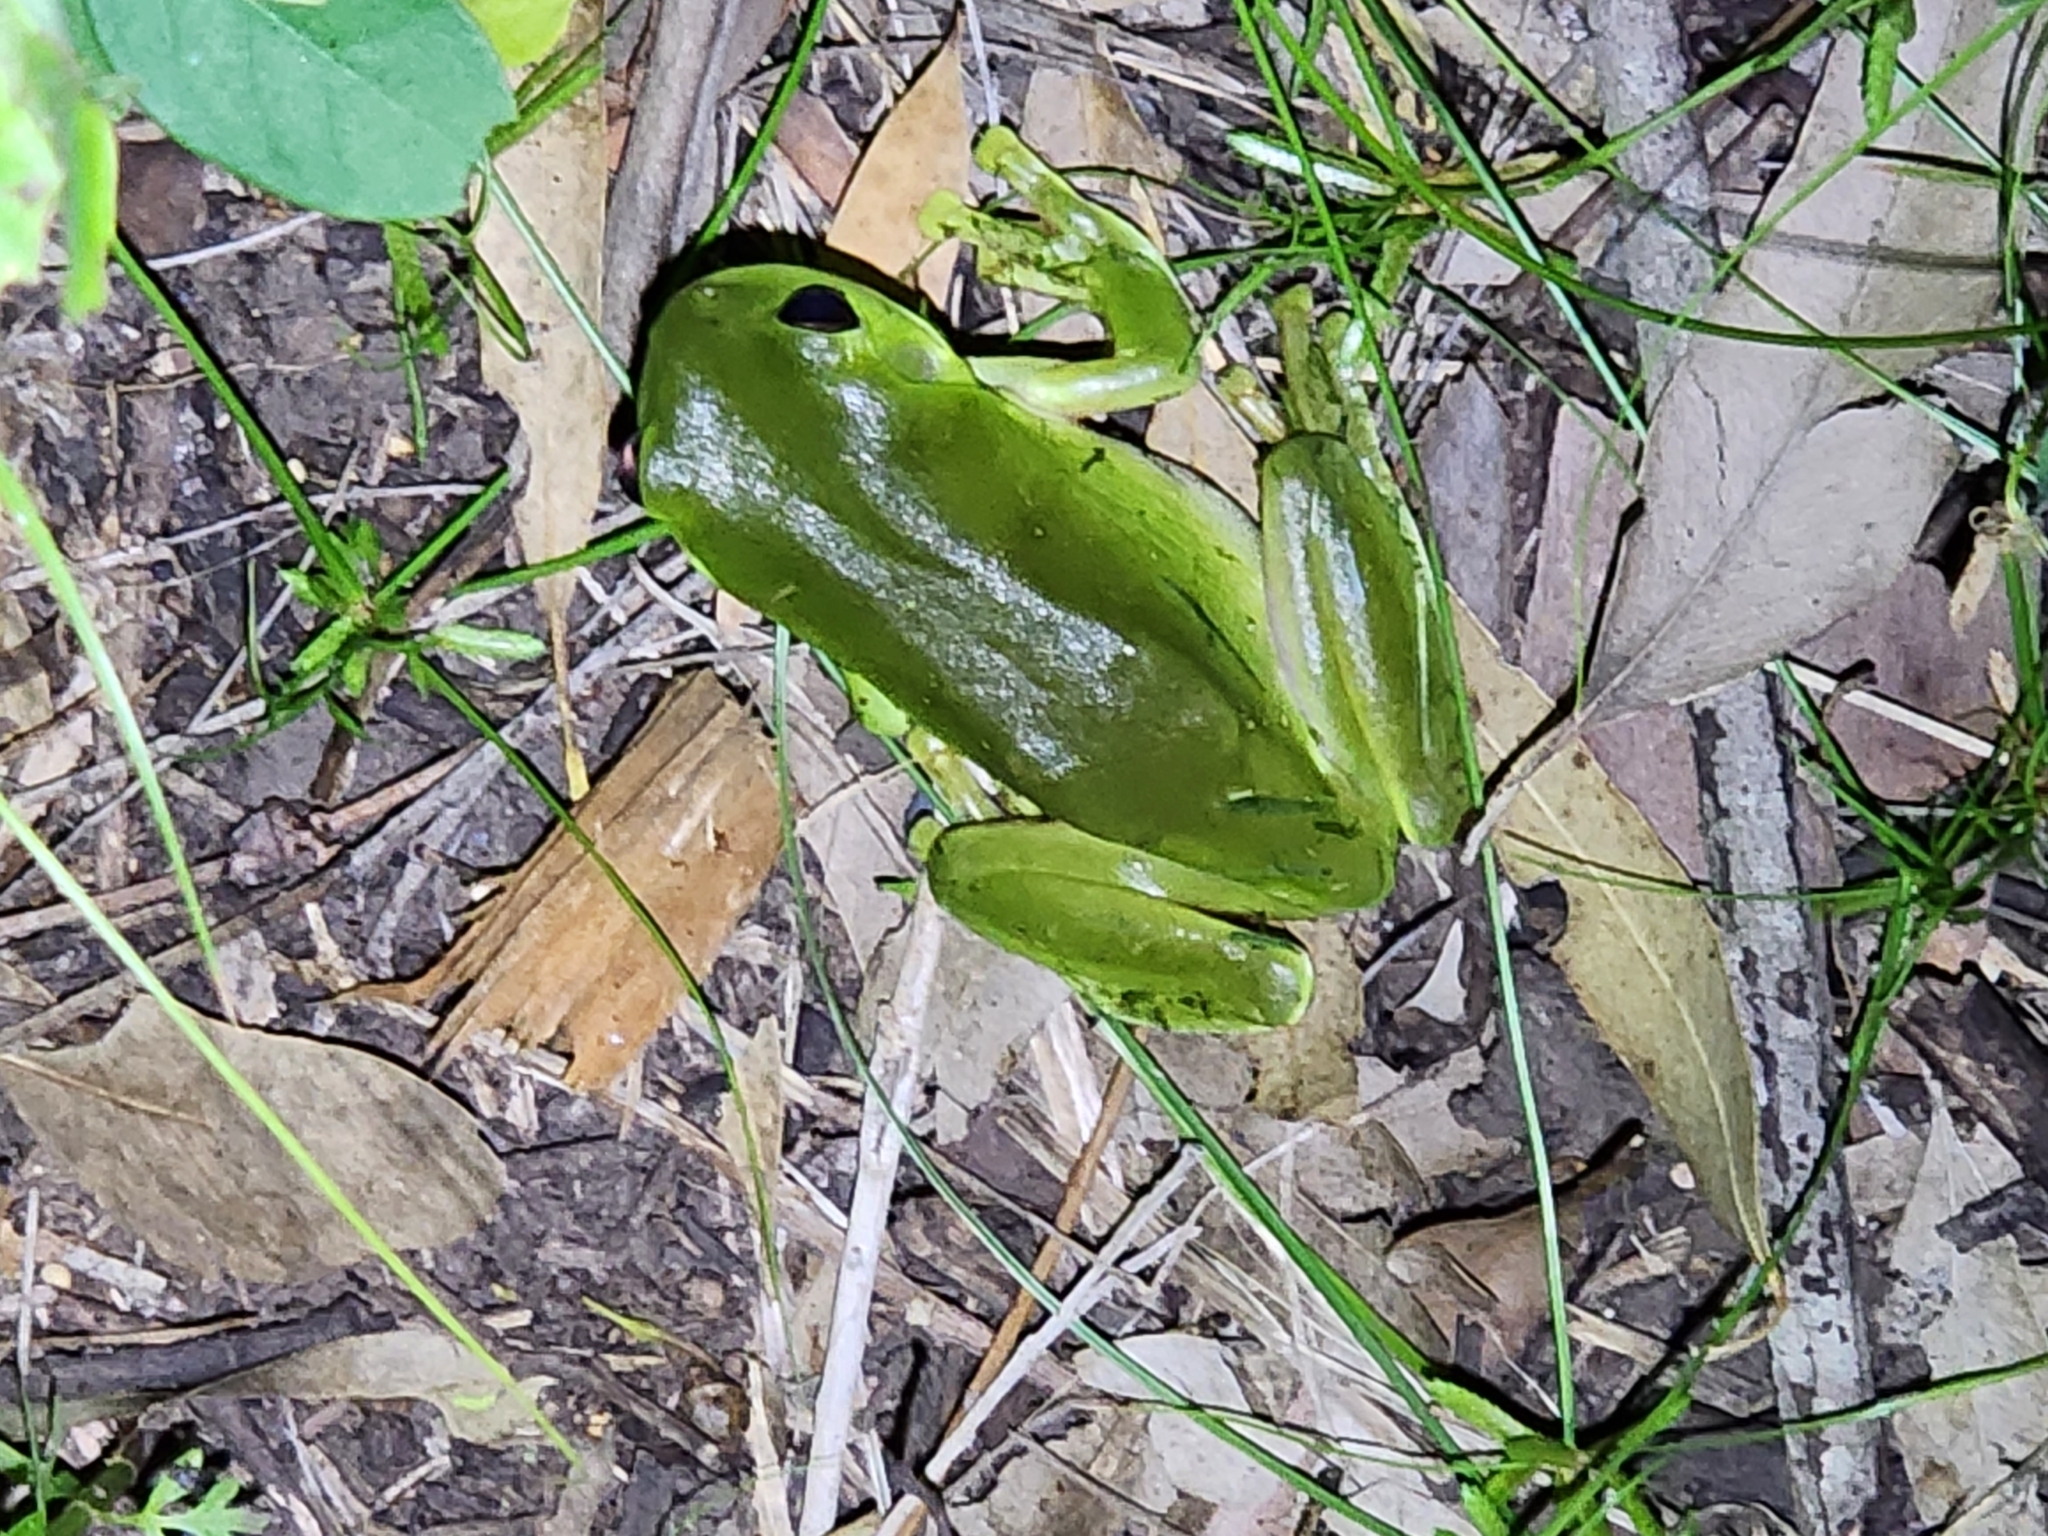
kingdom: Animalia
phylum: Chordata
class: Amphibia
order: Anura
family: Pelodryadidae
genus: Ranoidea
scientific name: Ranoidea caerulea
